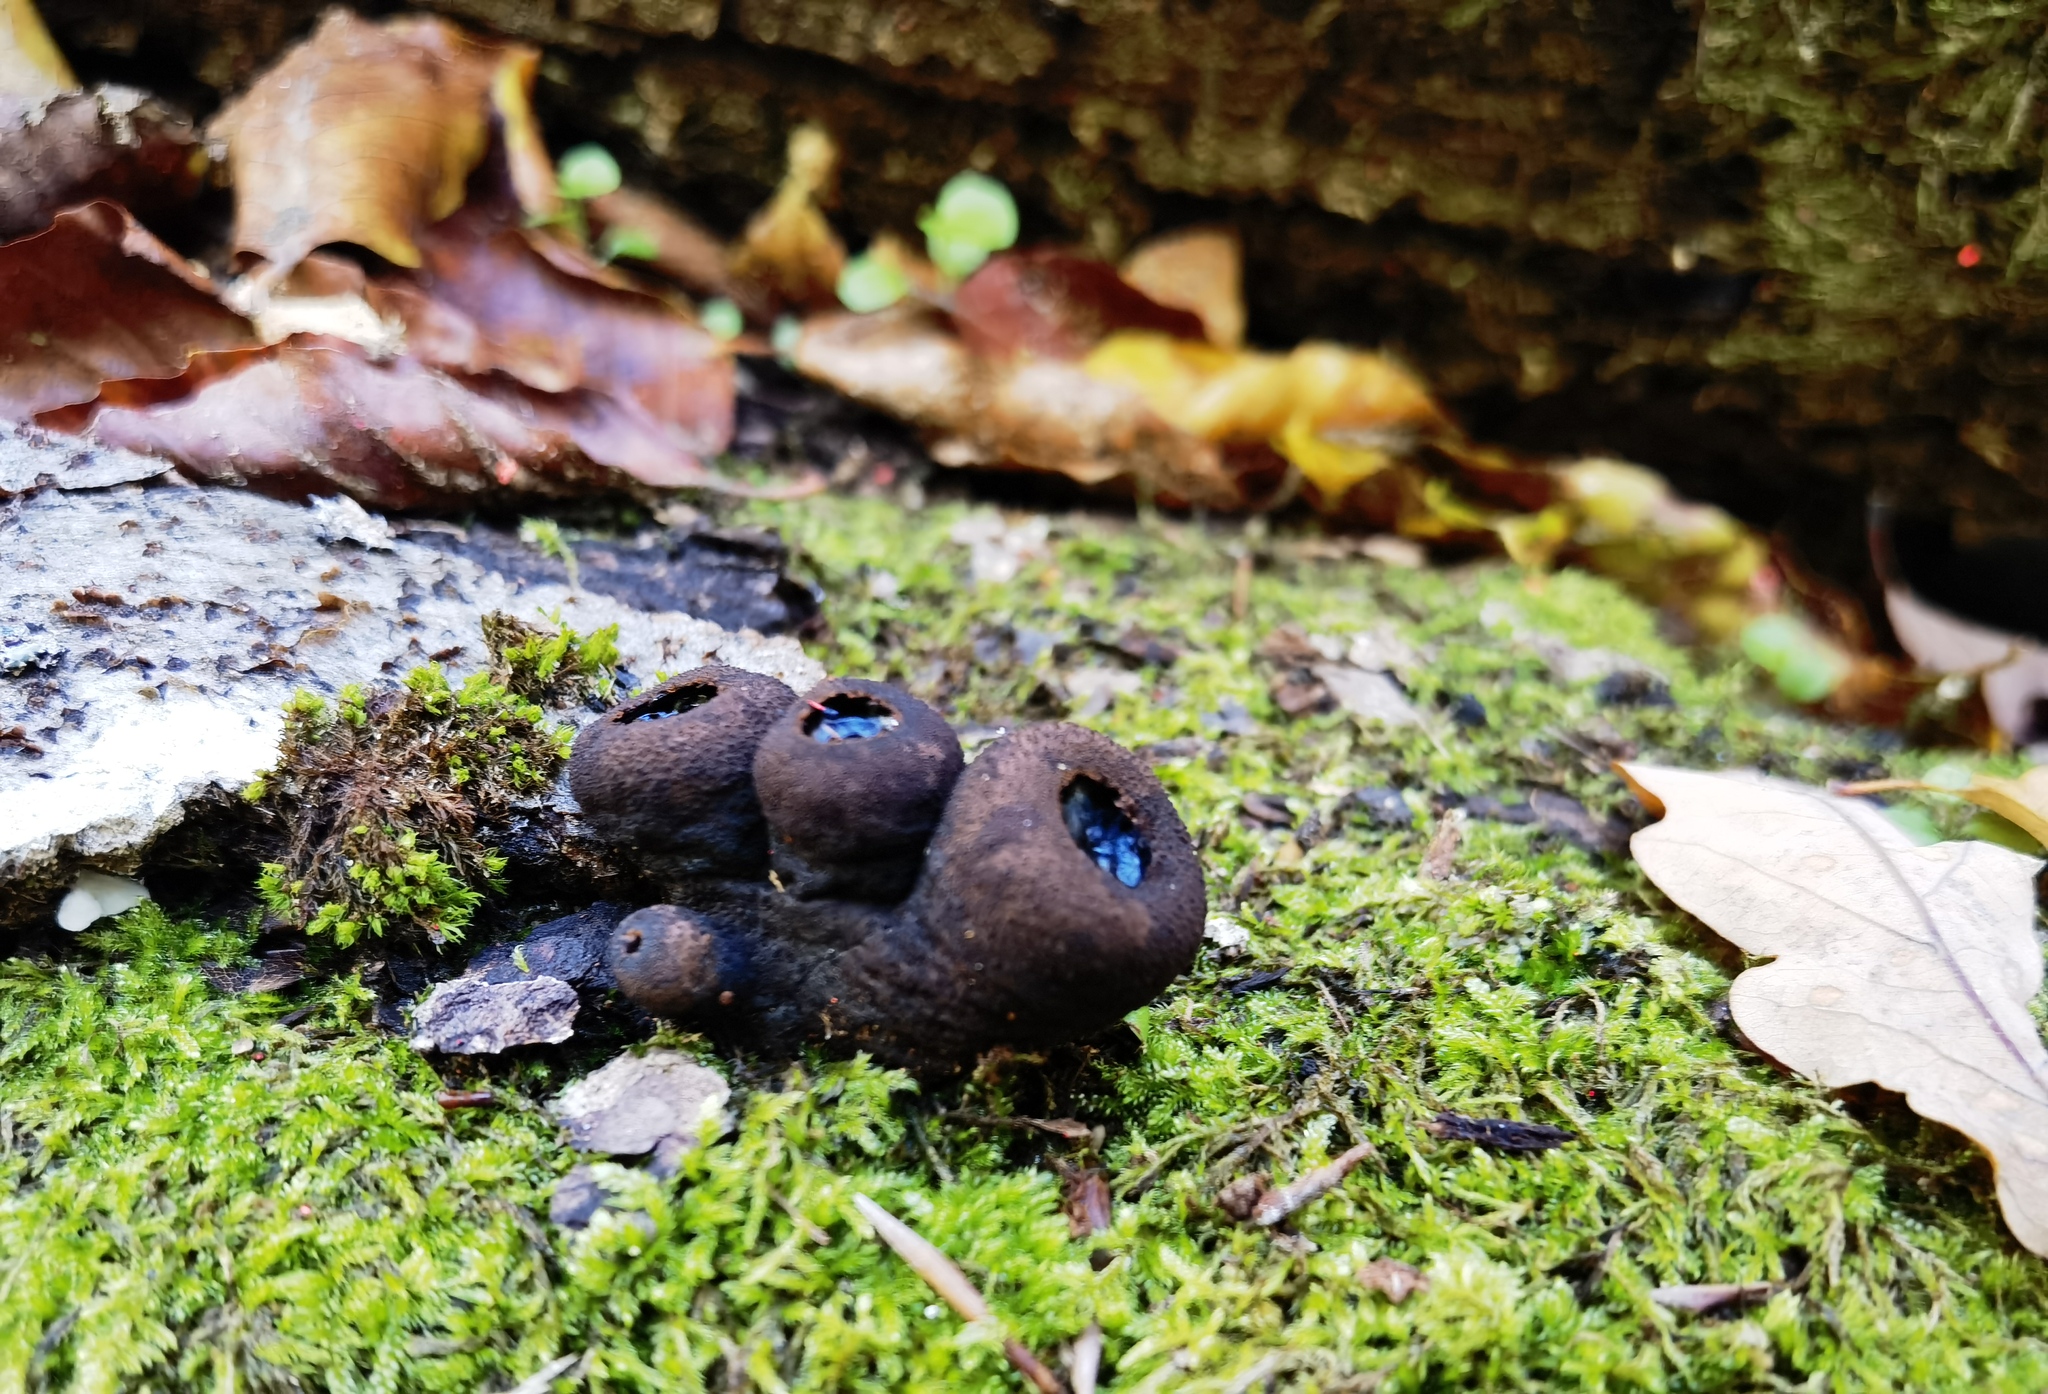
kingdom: Fungi
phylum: Ascomycota
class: Leotiomycetes
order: Phacidiales
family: Phacidiaceae
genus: Bulgaria
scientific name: Bulgaria inquinans
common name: Black bulgar
